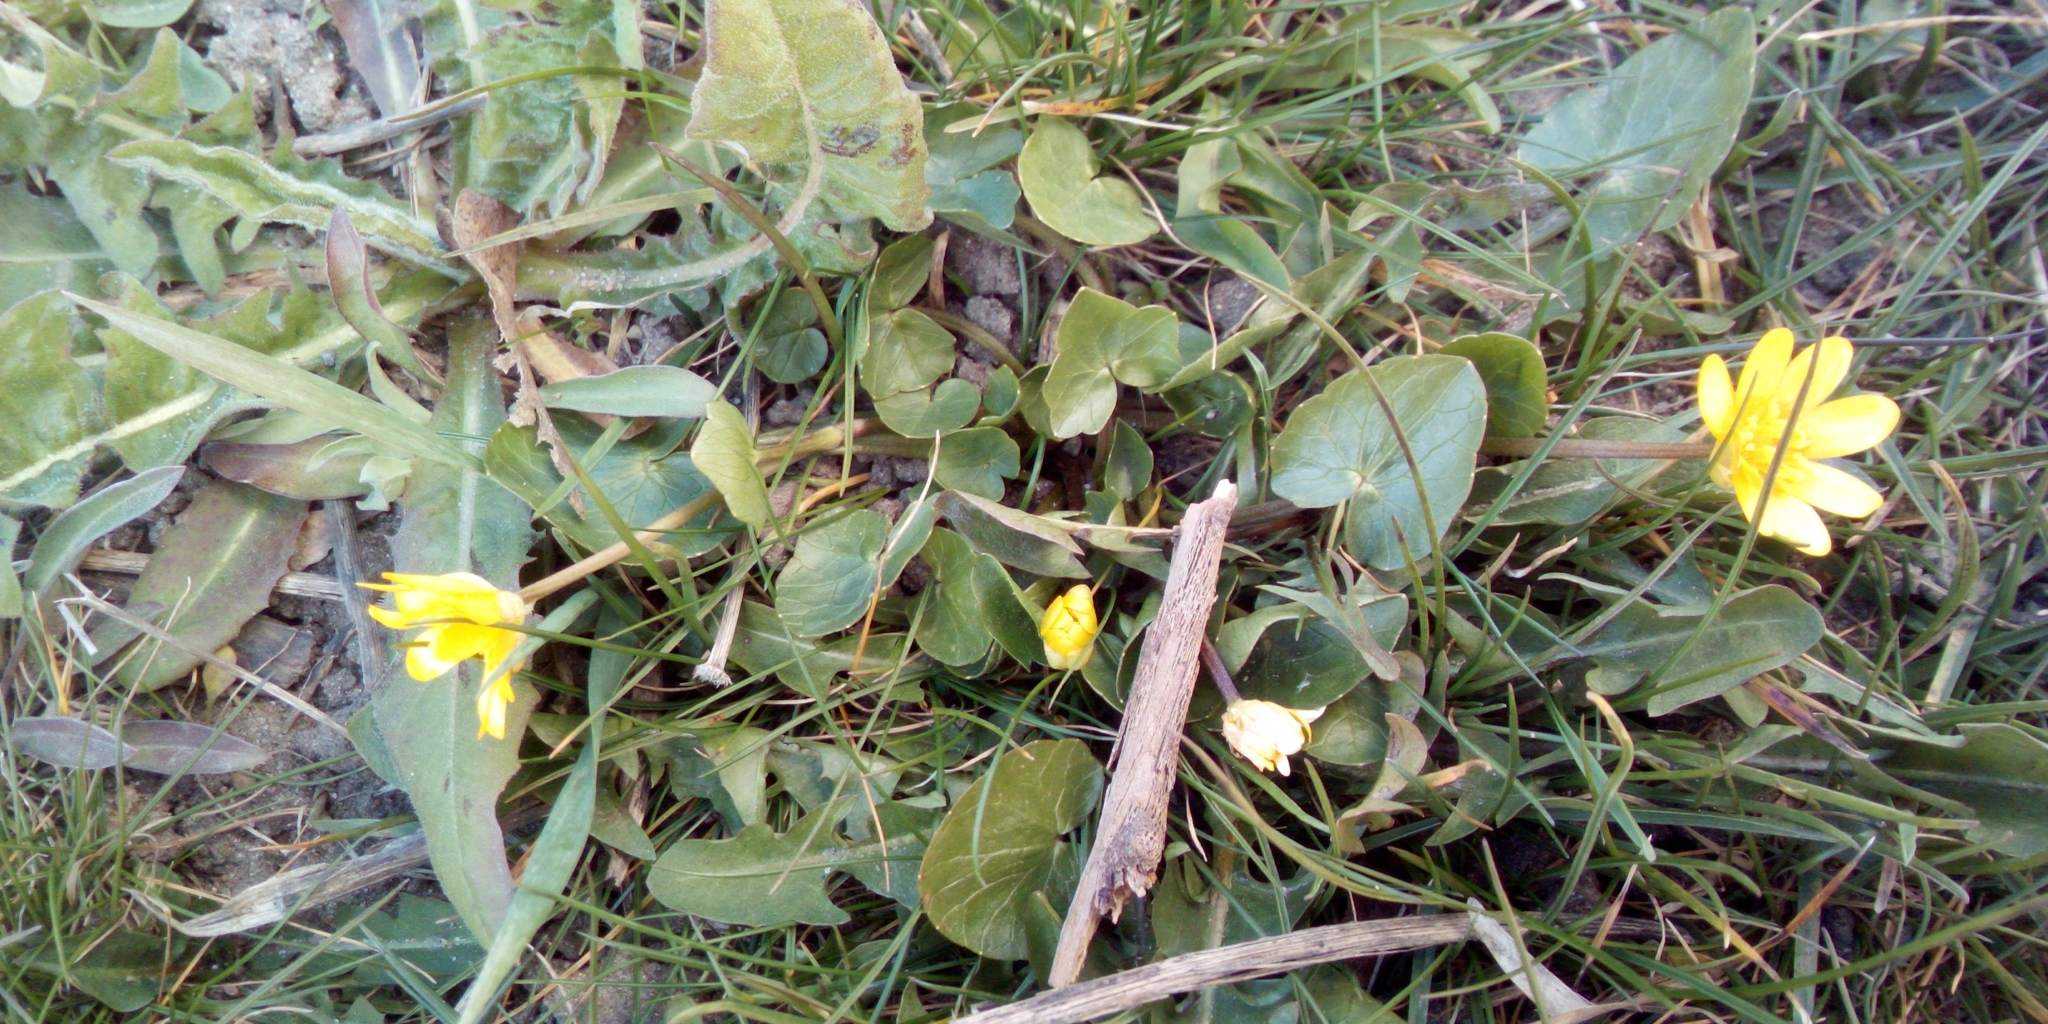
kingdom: Plantae
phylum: Tracheophyta
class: Magnoliopsida
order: Ranunculales
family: Ranunculaceae
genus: Ficaria
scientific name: Ficaria verna
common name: Lesser celandine
